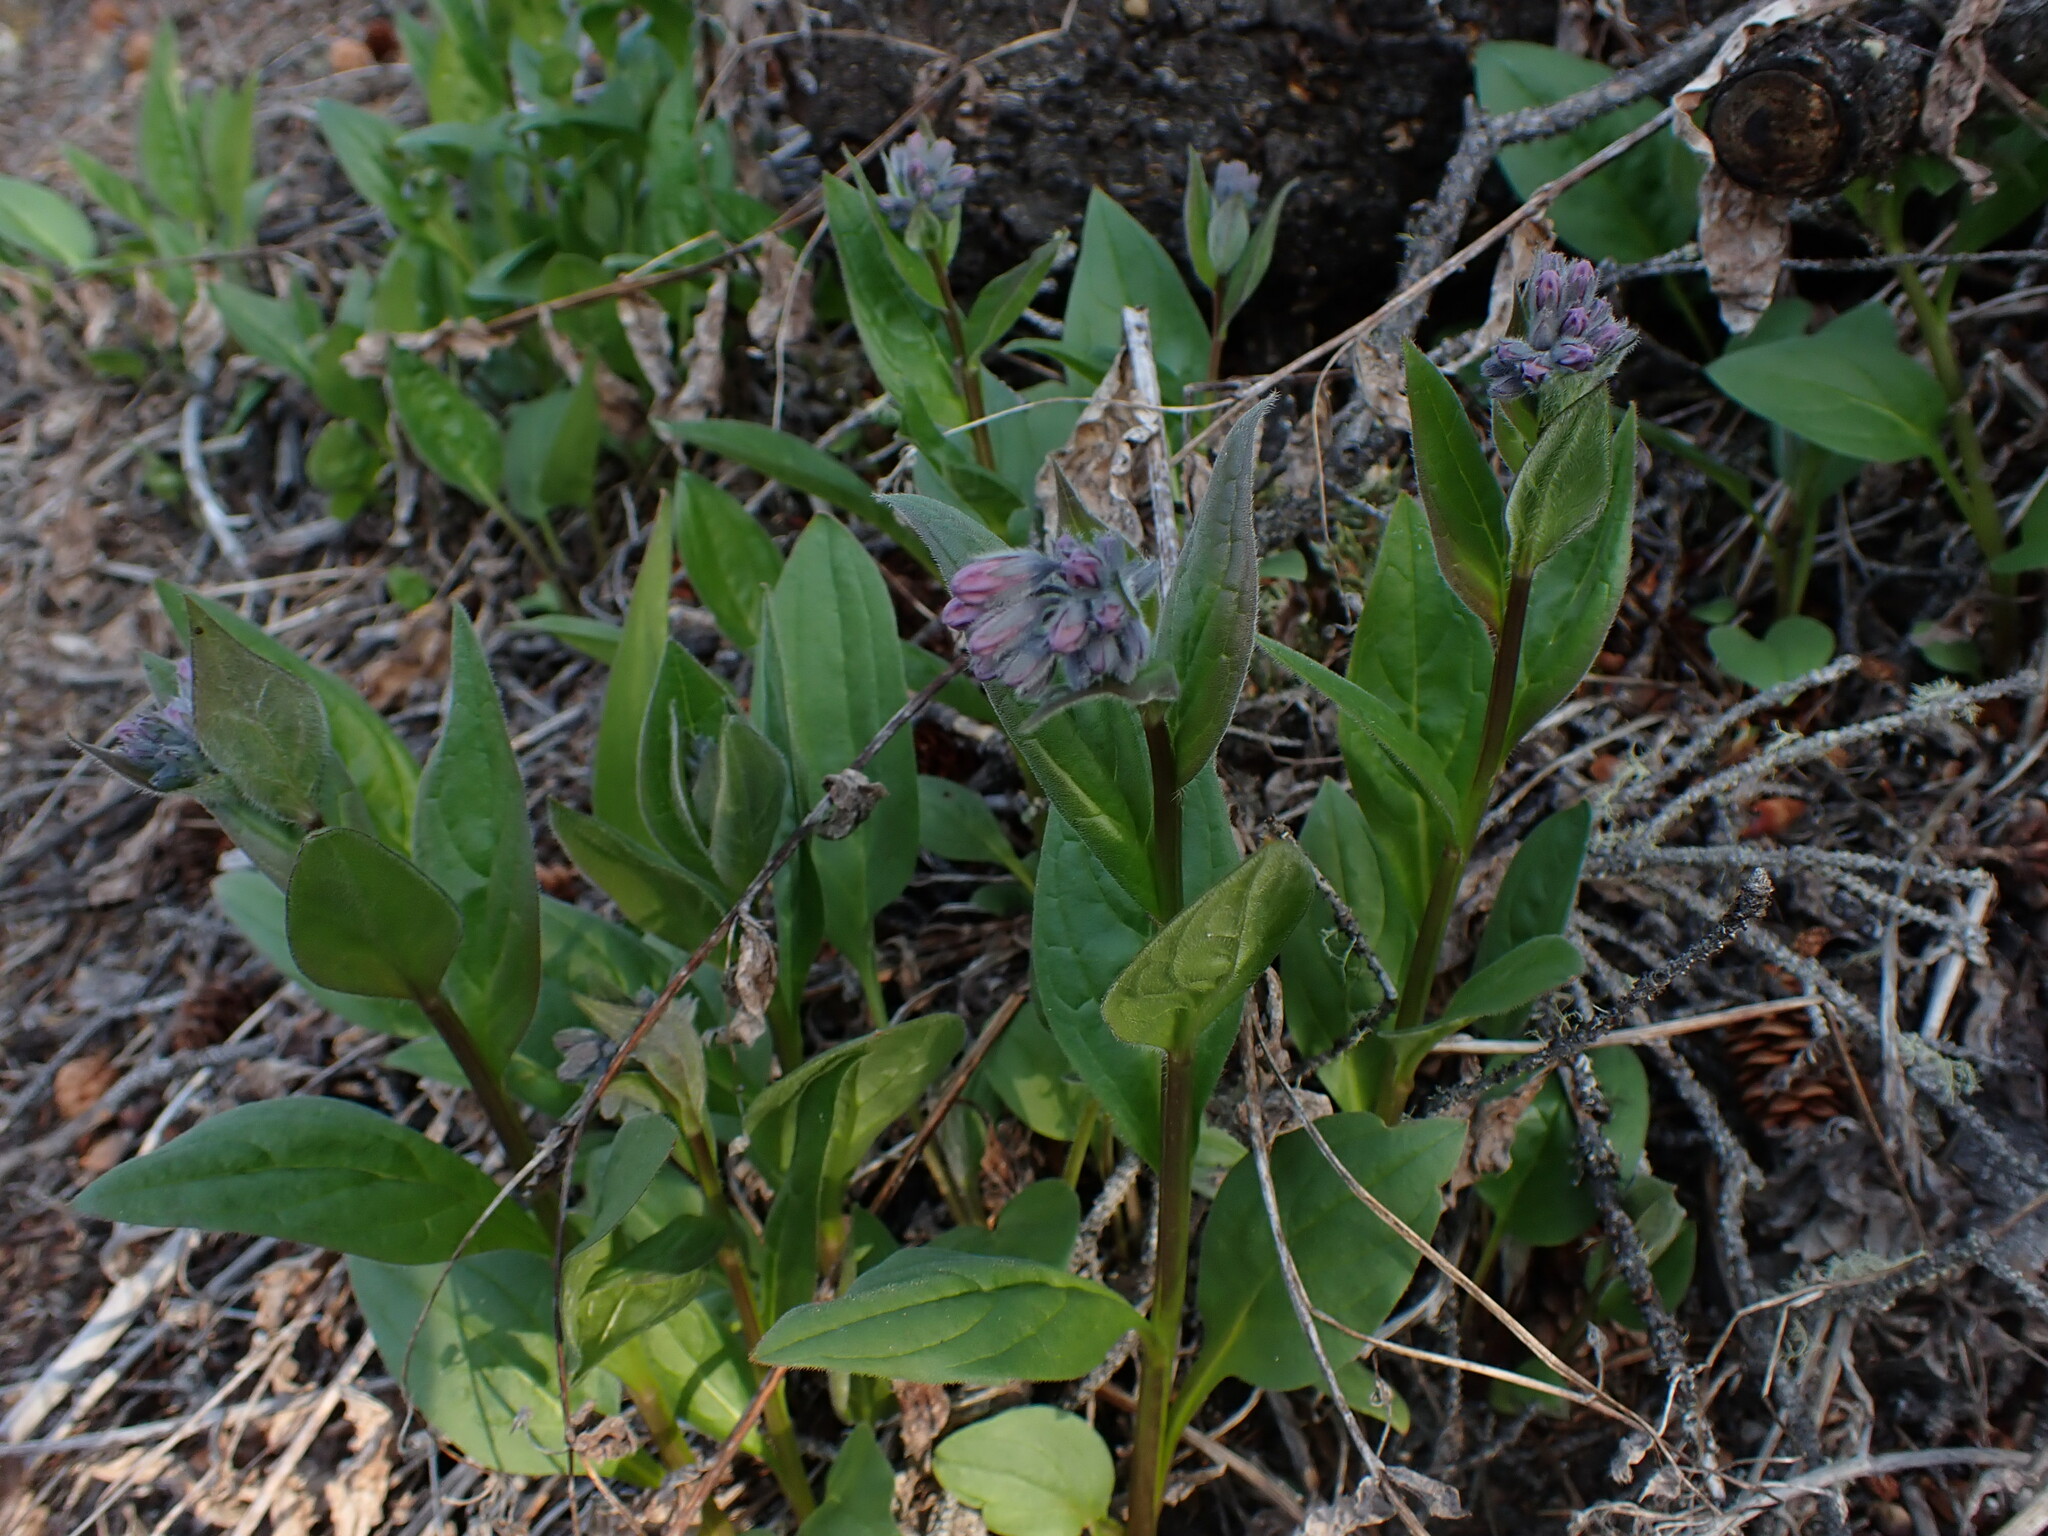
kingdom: Plantae
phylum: Tracheophyta
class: Magnoliopsida
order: Boraginales
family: Boraginaceae
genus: Mertensia
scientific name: Mertensia paniculata
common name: Panicled bluebells
